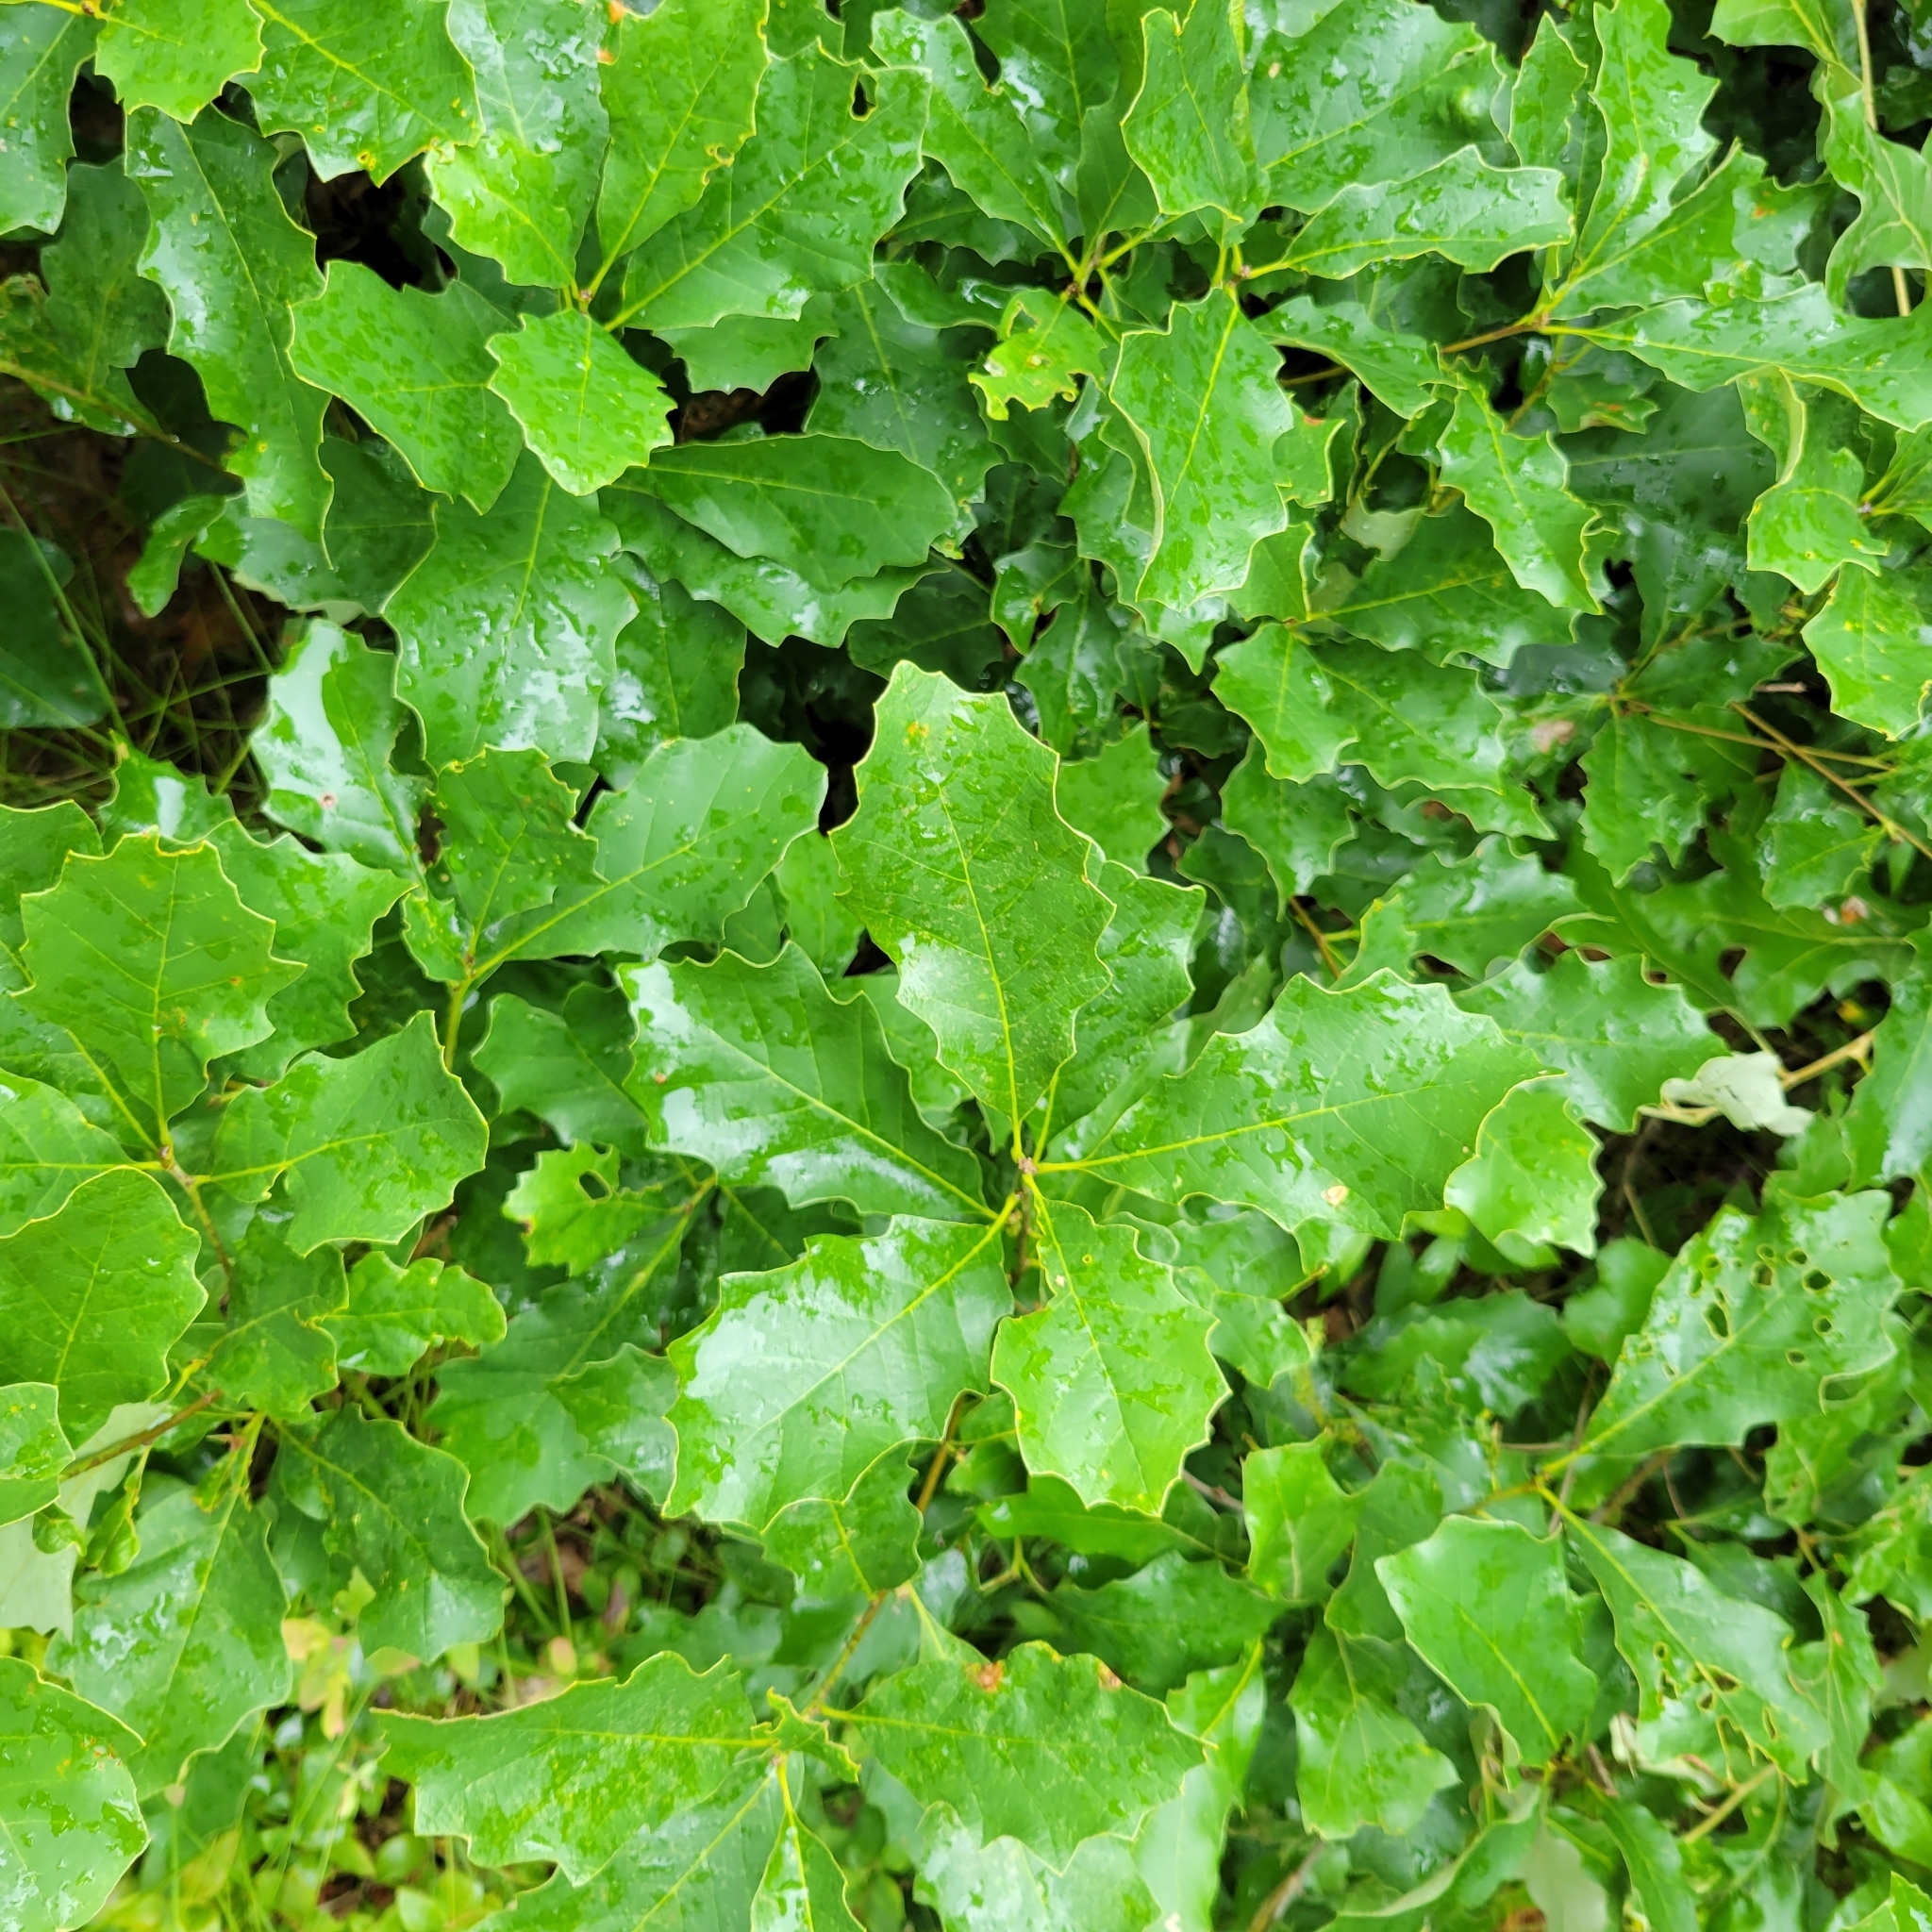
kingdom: Plantae
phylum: Tracheophyta
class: Magnoliopsida
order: Fagales
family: Fagaceae
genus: Quercus
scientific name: Quercus prinoides
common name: Dwarf chinkapin oak
